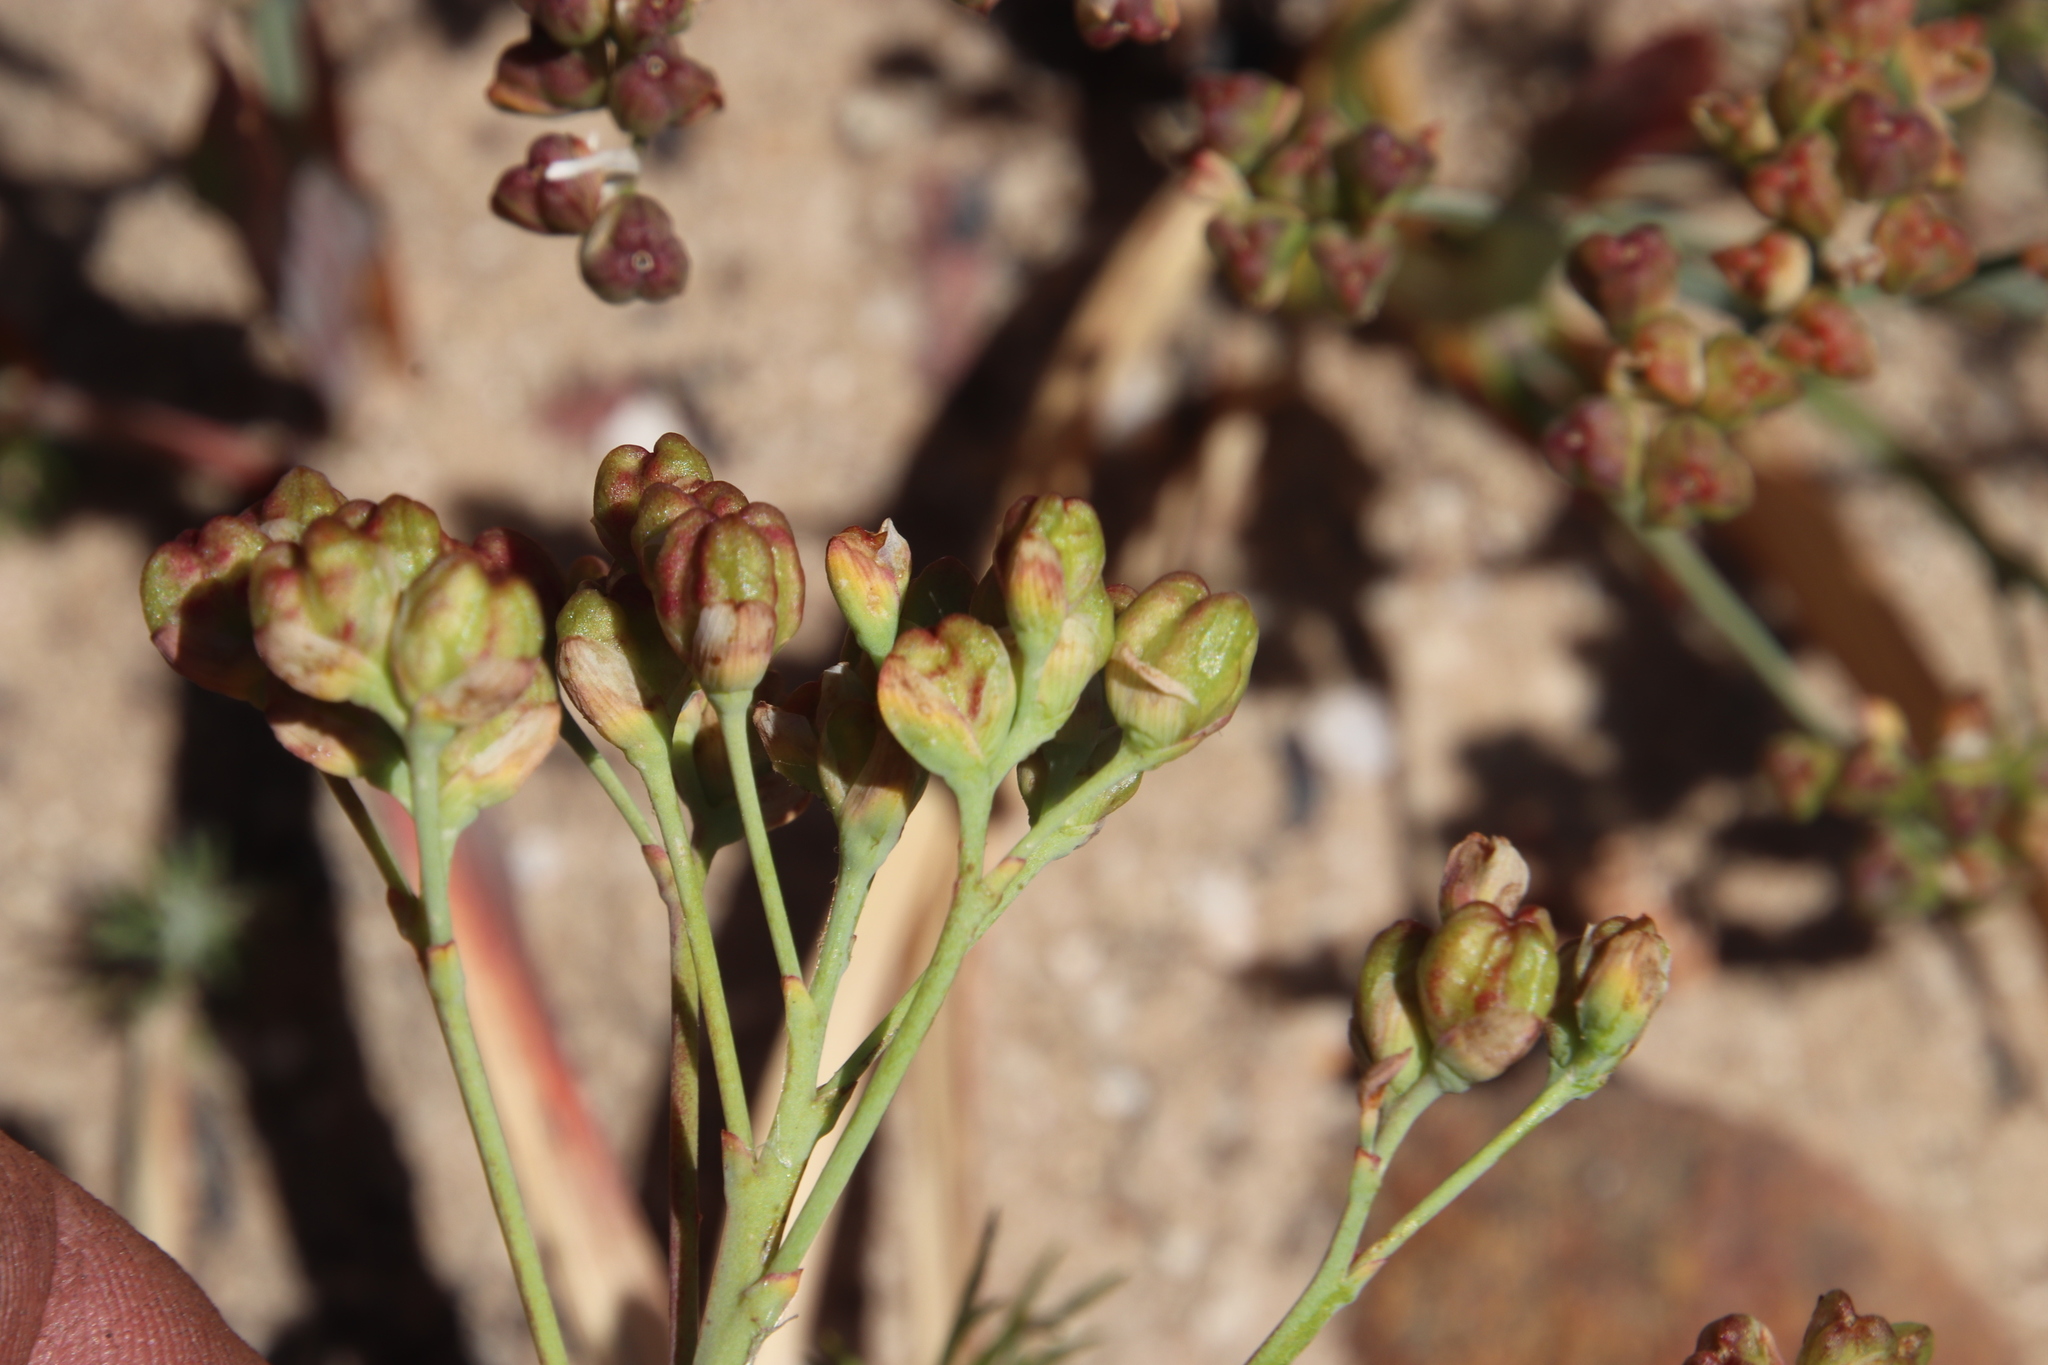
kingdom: Plantae
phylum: Tracheophyta
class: Liliopsida
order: Asparagales
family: Iridaceae
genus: Codonorhiza
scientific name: Codonorhiza corymbosa
